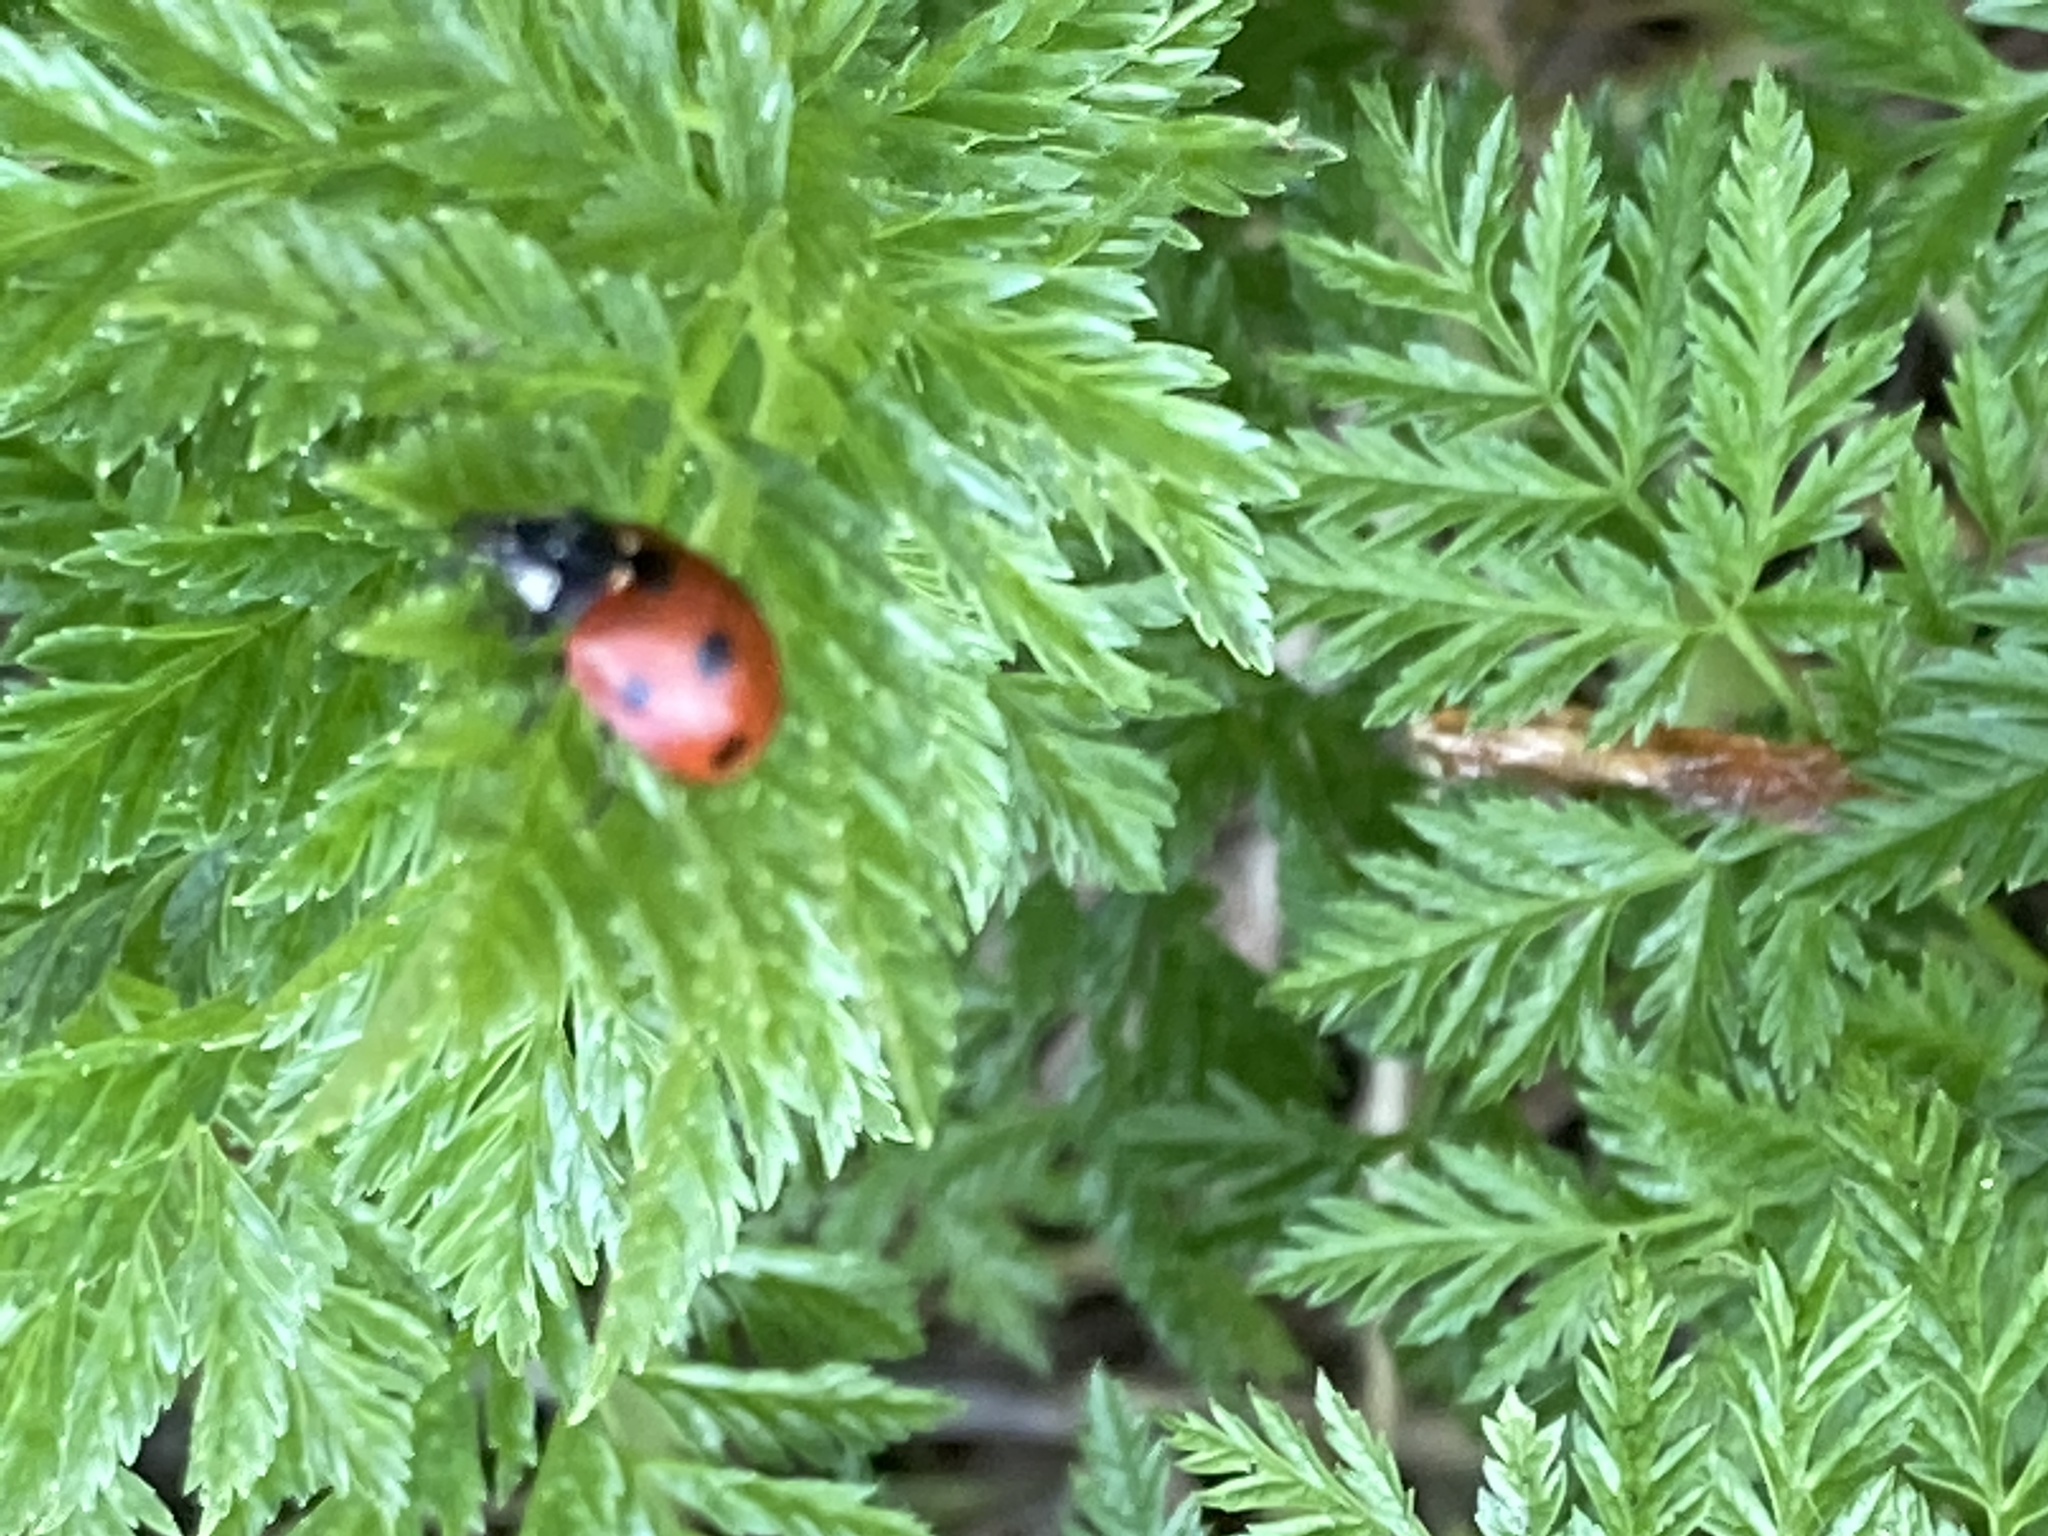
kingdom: Animalia
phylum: Arthropoda
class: Insecta
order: Coleoptera
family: Coccinellidae
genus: Coccinella
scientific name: Coccinella septempunctata
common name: Sevenspotted lady beetle
